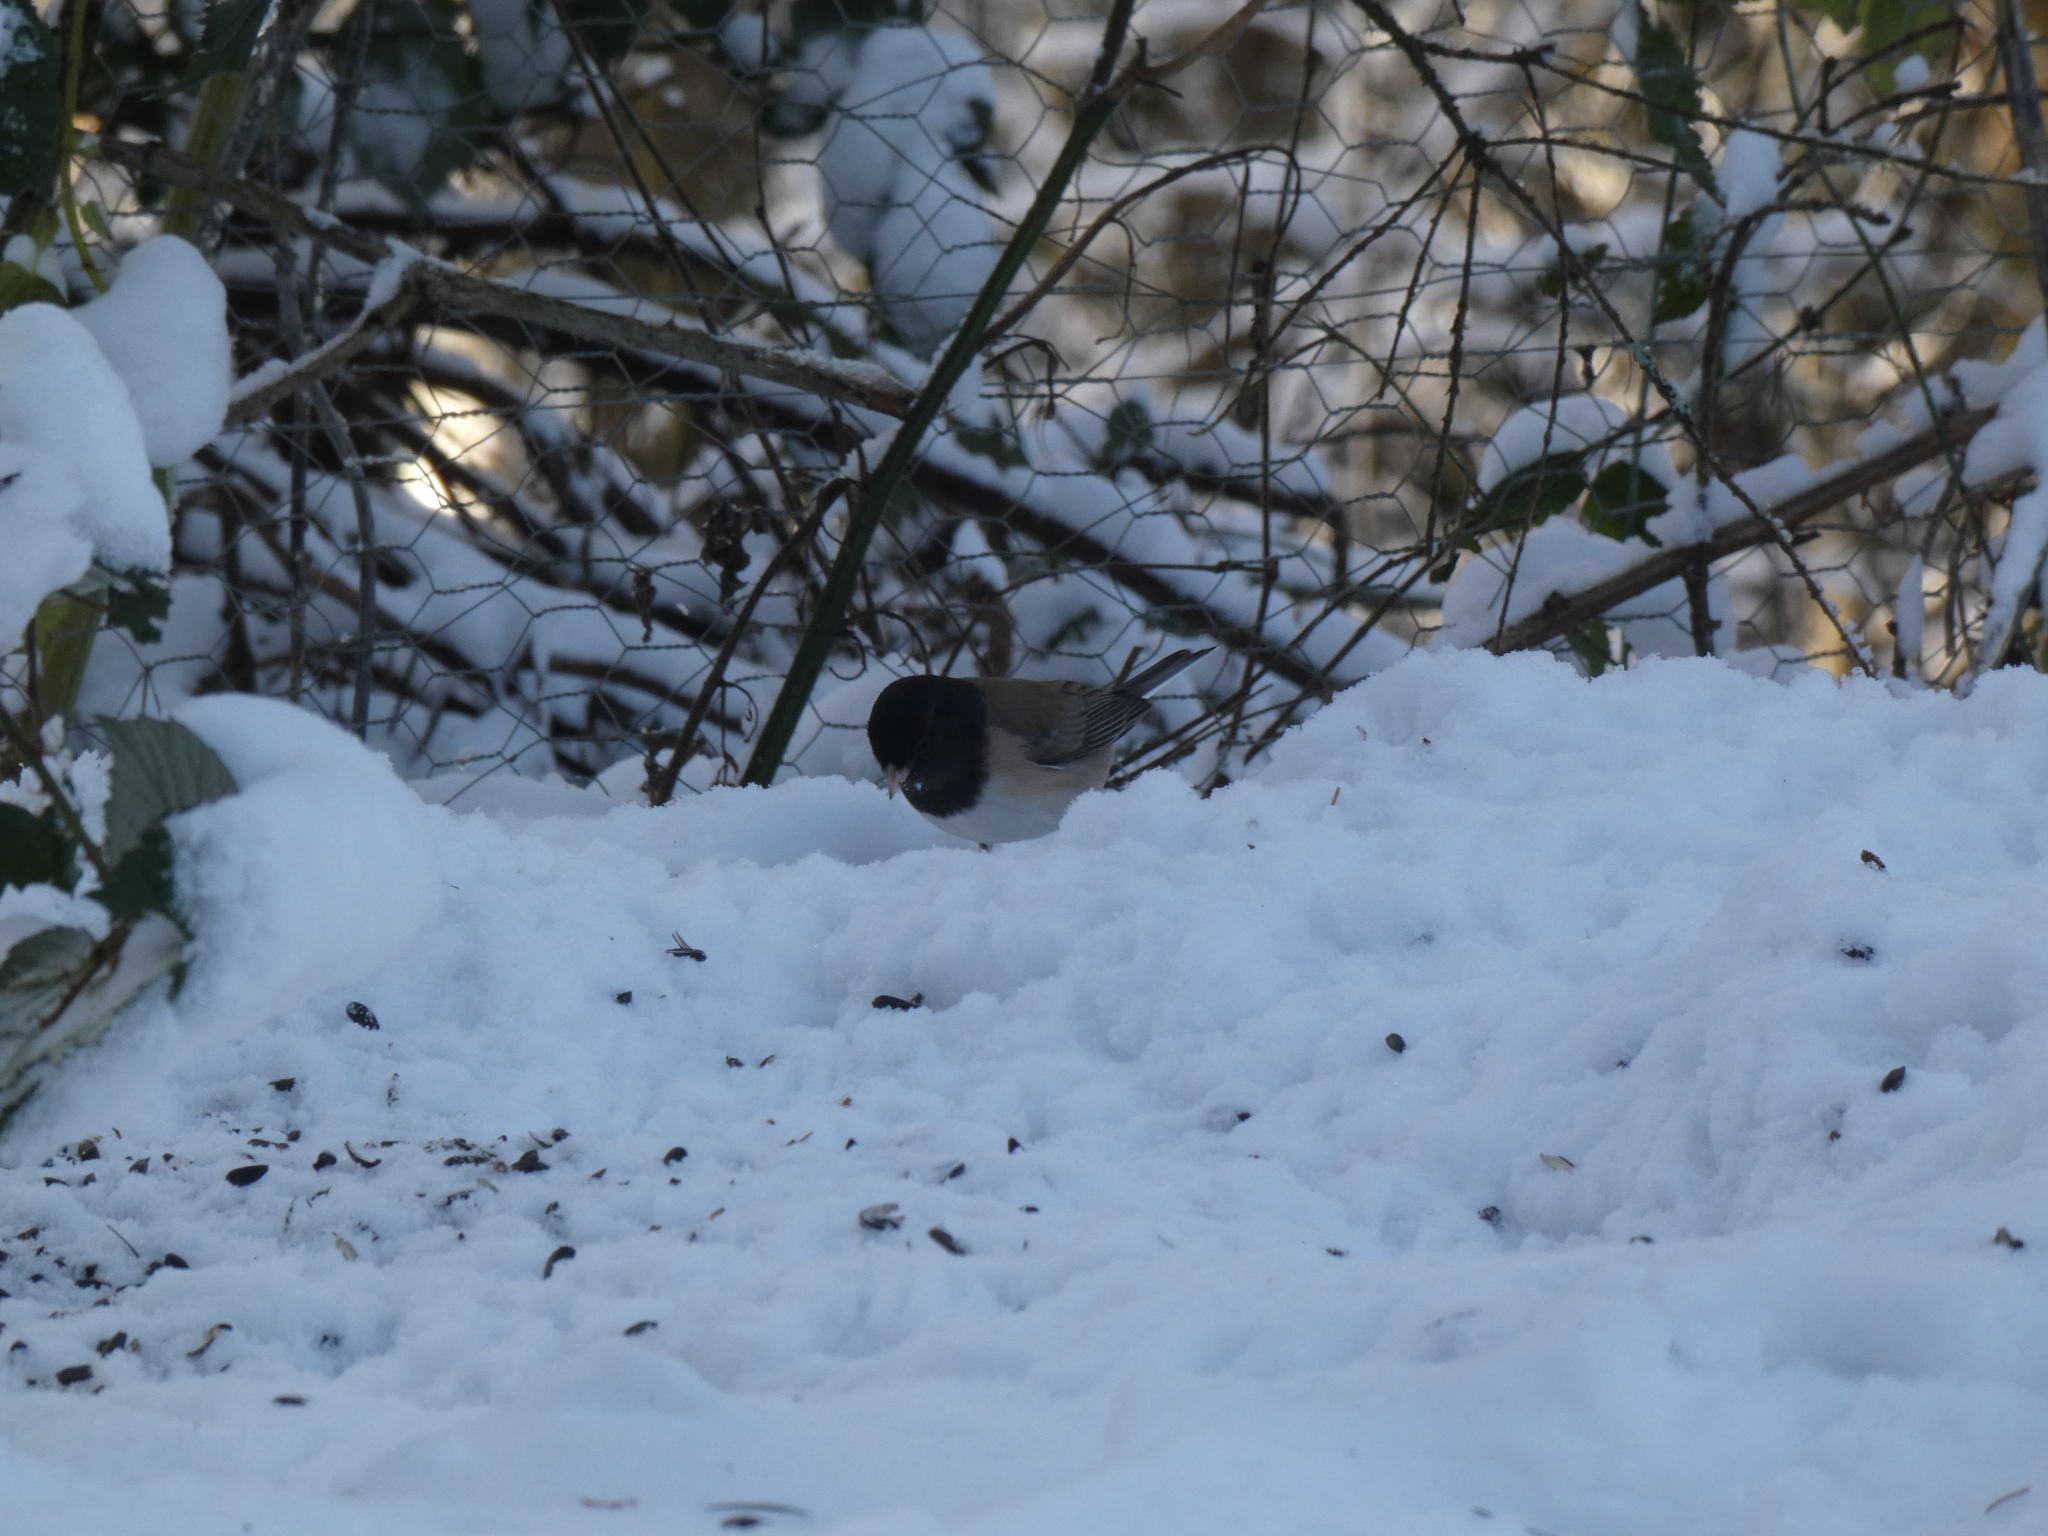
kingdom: Animalia
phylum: Chordata
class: Aves
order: Passeriformes
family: Passerellidae
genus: Junco
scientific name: Junco hyemalis
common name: Dark-eyed junco
